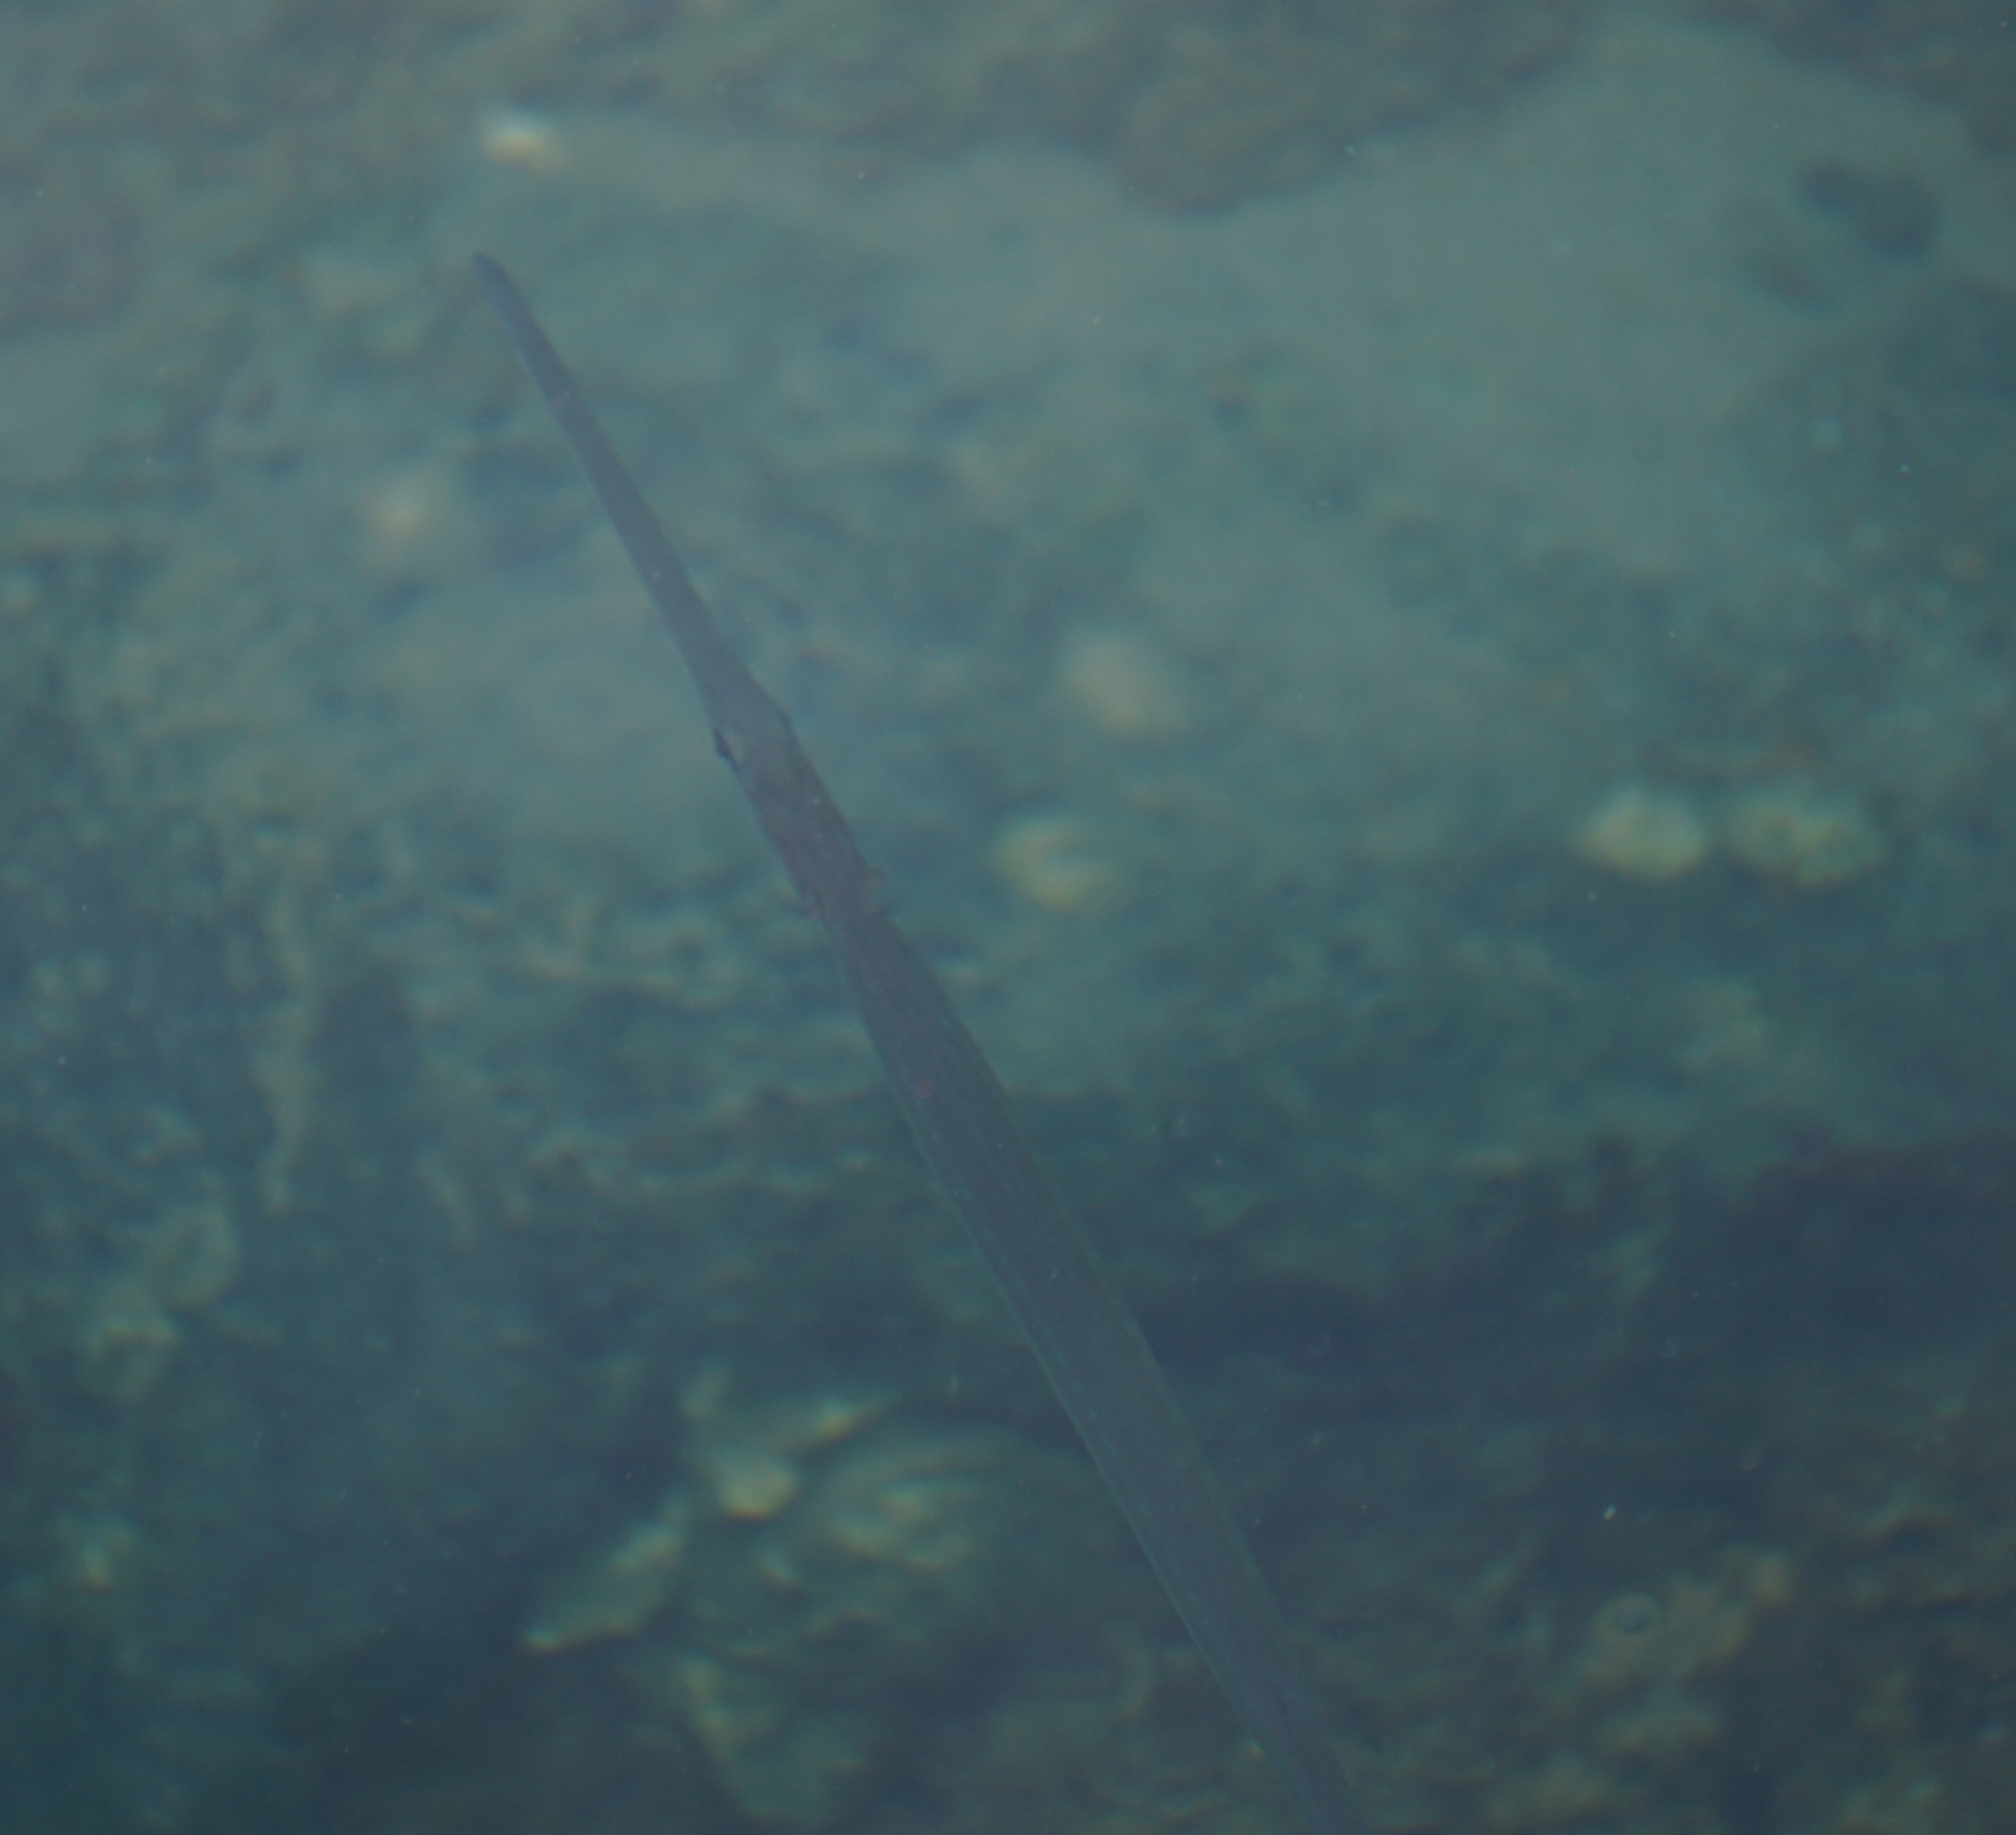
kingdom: Animalia
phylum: Chordata
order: Syngnathiformes
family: Fistulariidae
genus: Fistularia
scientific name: Fistularia commersonii
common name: Bluespotted cornetfish
